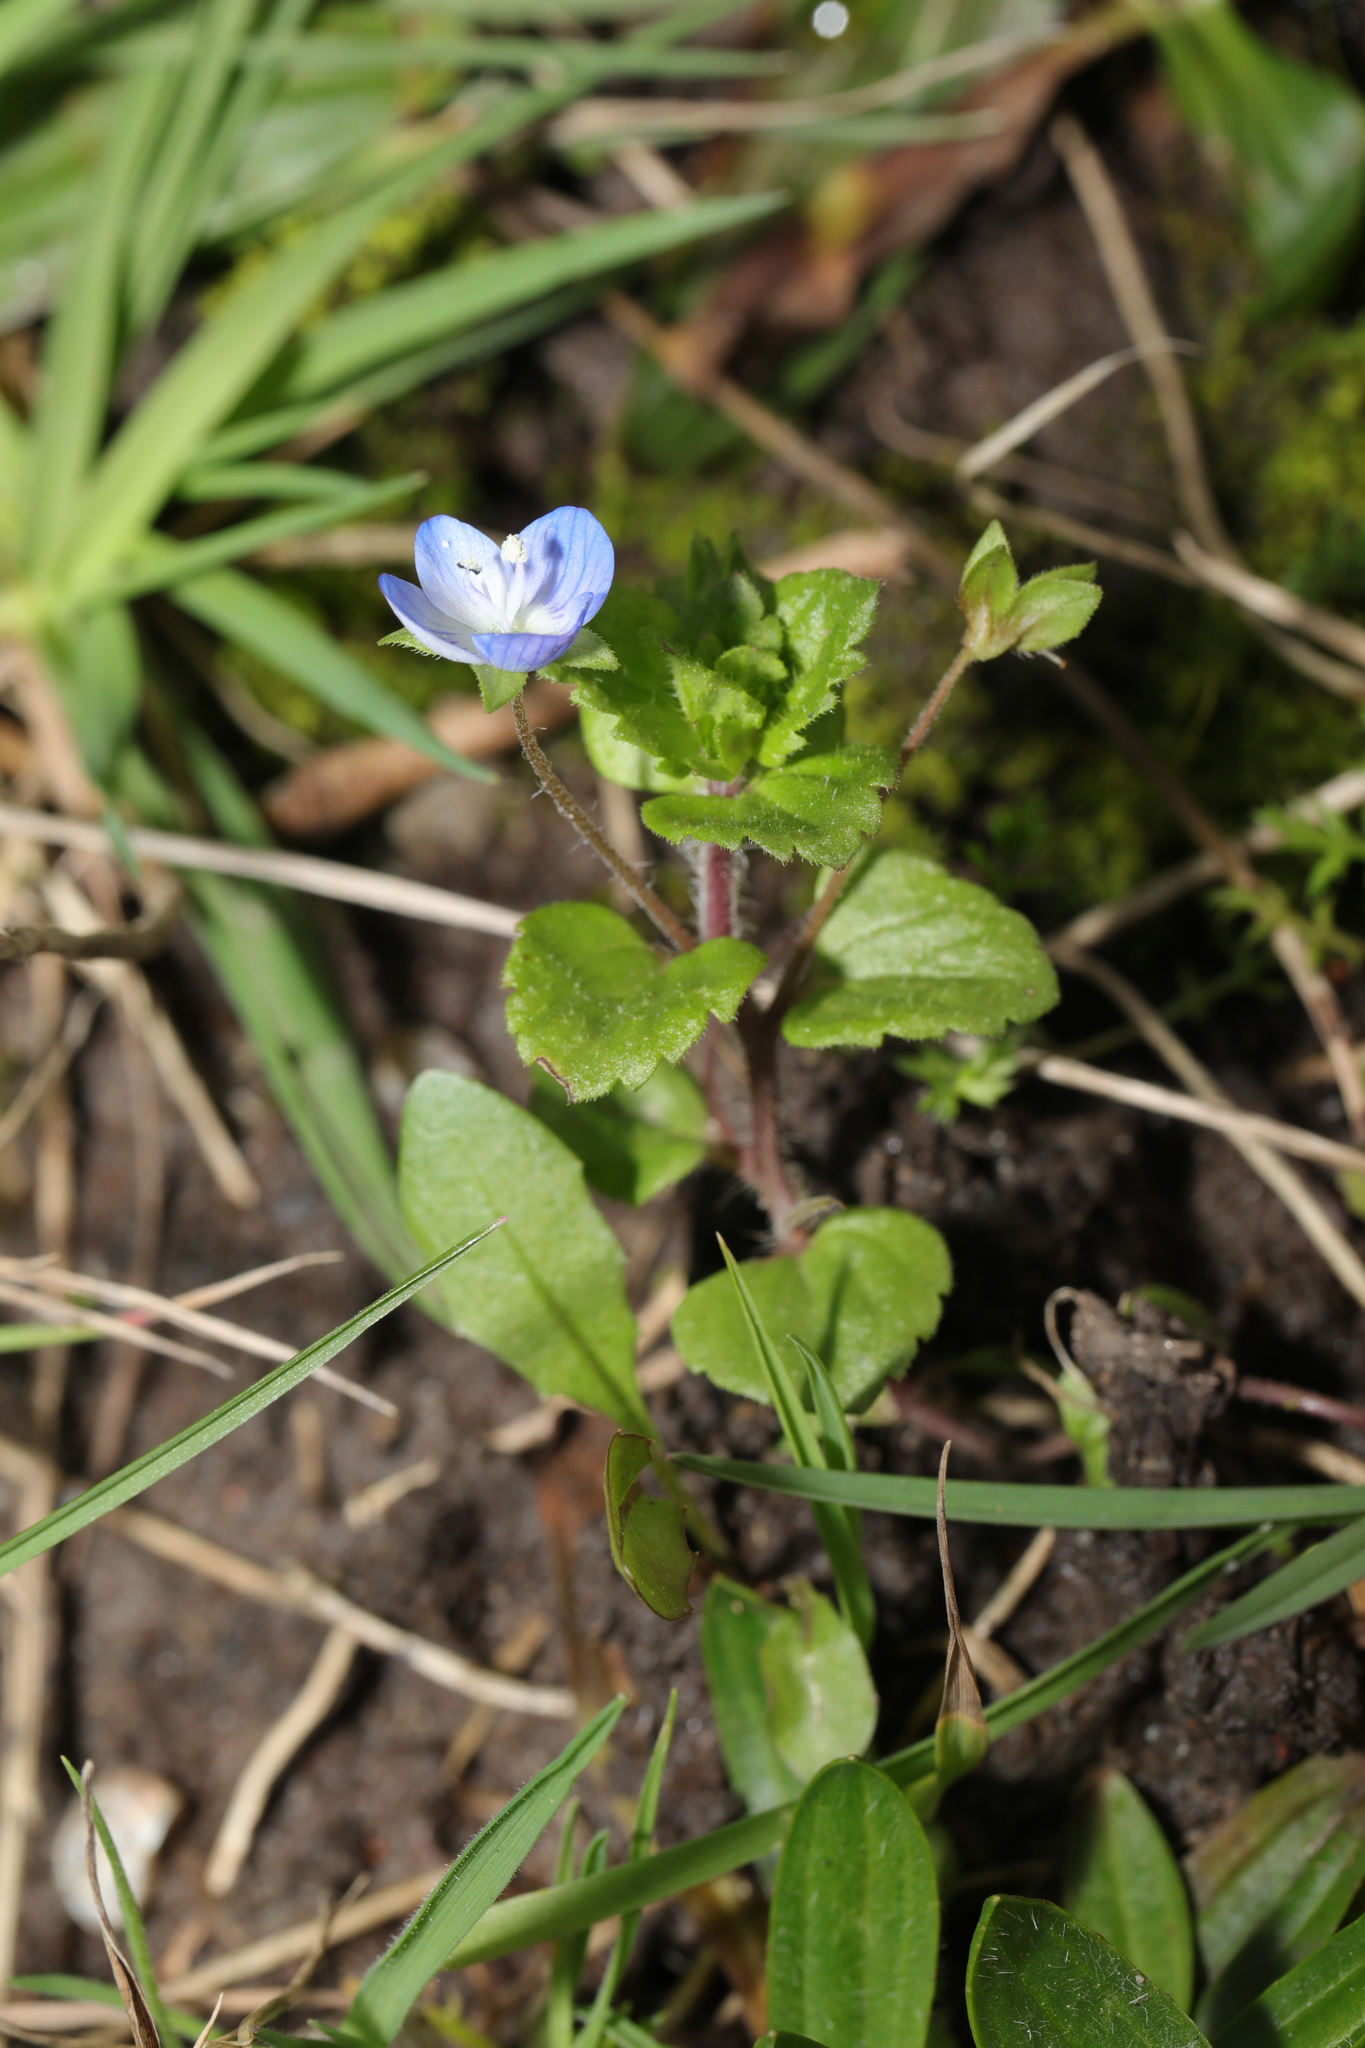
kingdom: Plantae
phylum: Tracheophyta
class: Magnoliopsida
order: Lamiales
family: Plantaginaceae
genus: Veronica
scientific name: Veronica persica
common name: Common field-speedwell
